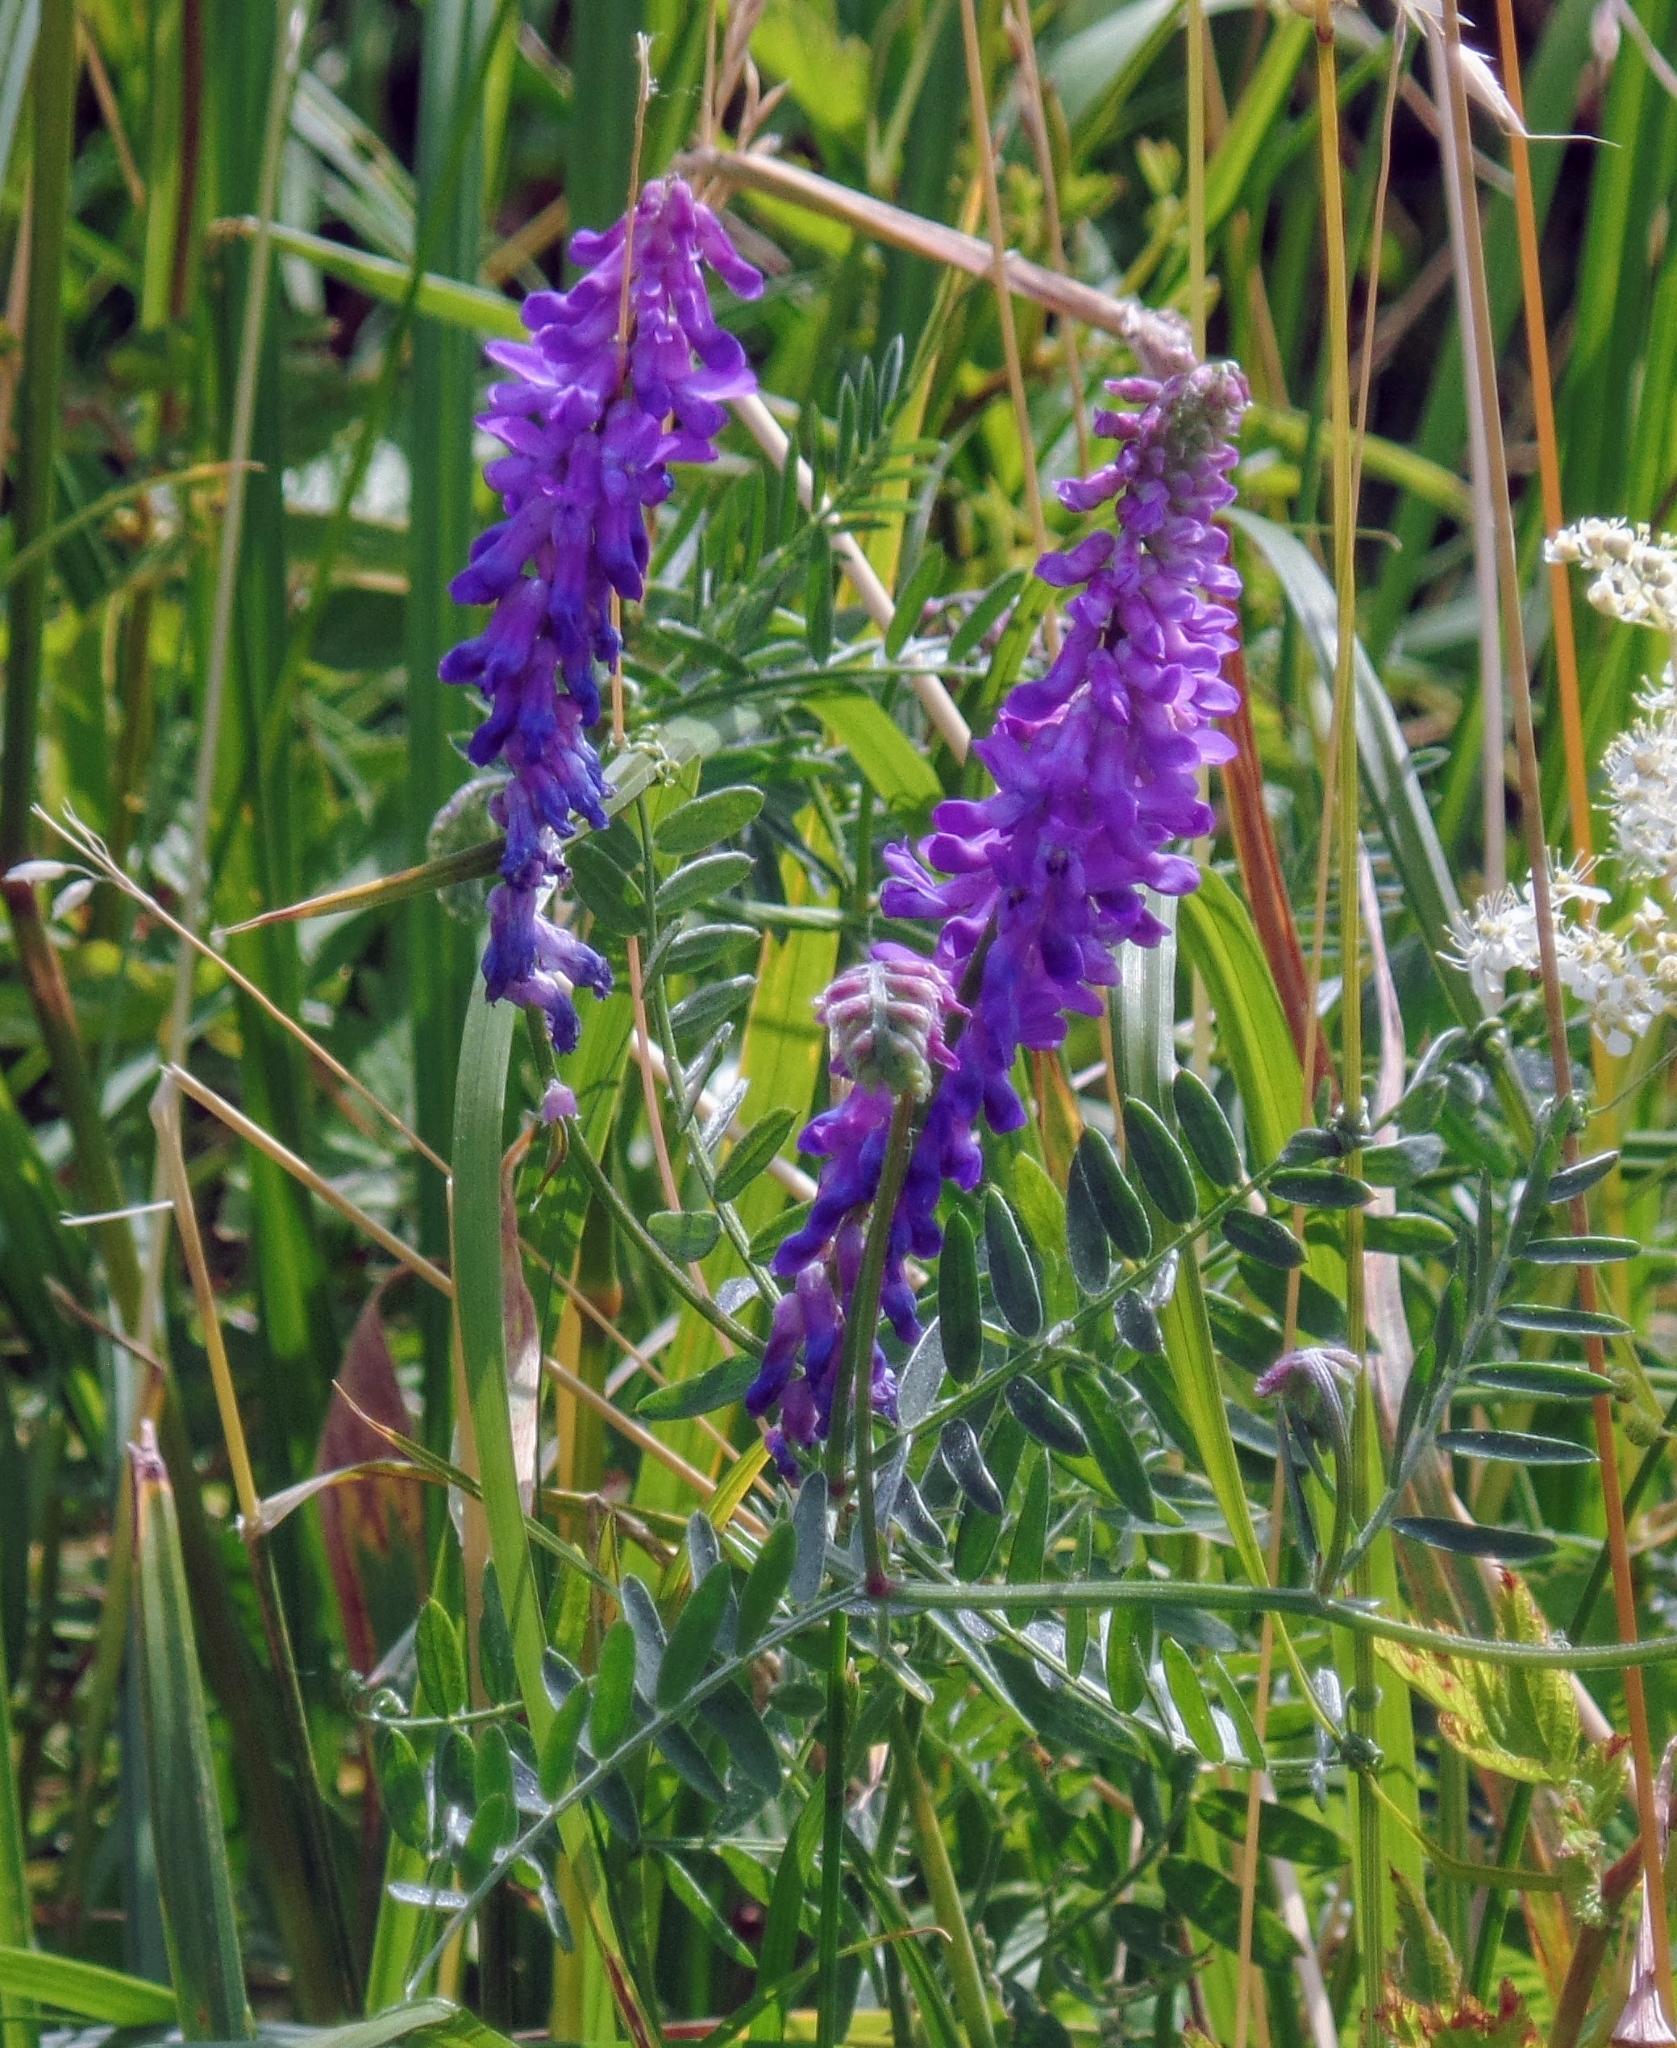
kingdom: Plantae
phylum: Tracheophyta
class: Magnoliopsida
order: Fabales
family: Fabaceae
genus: Vicia
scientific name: Vicia cracca
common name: Bird vetch
